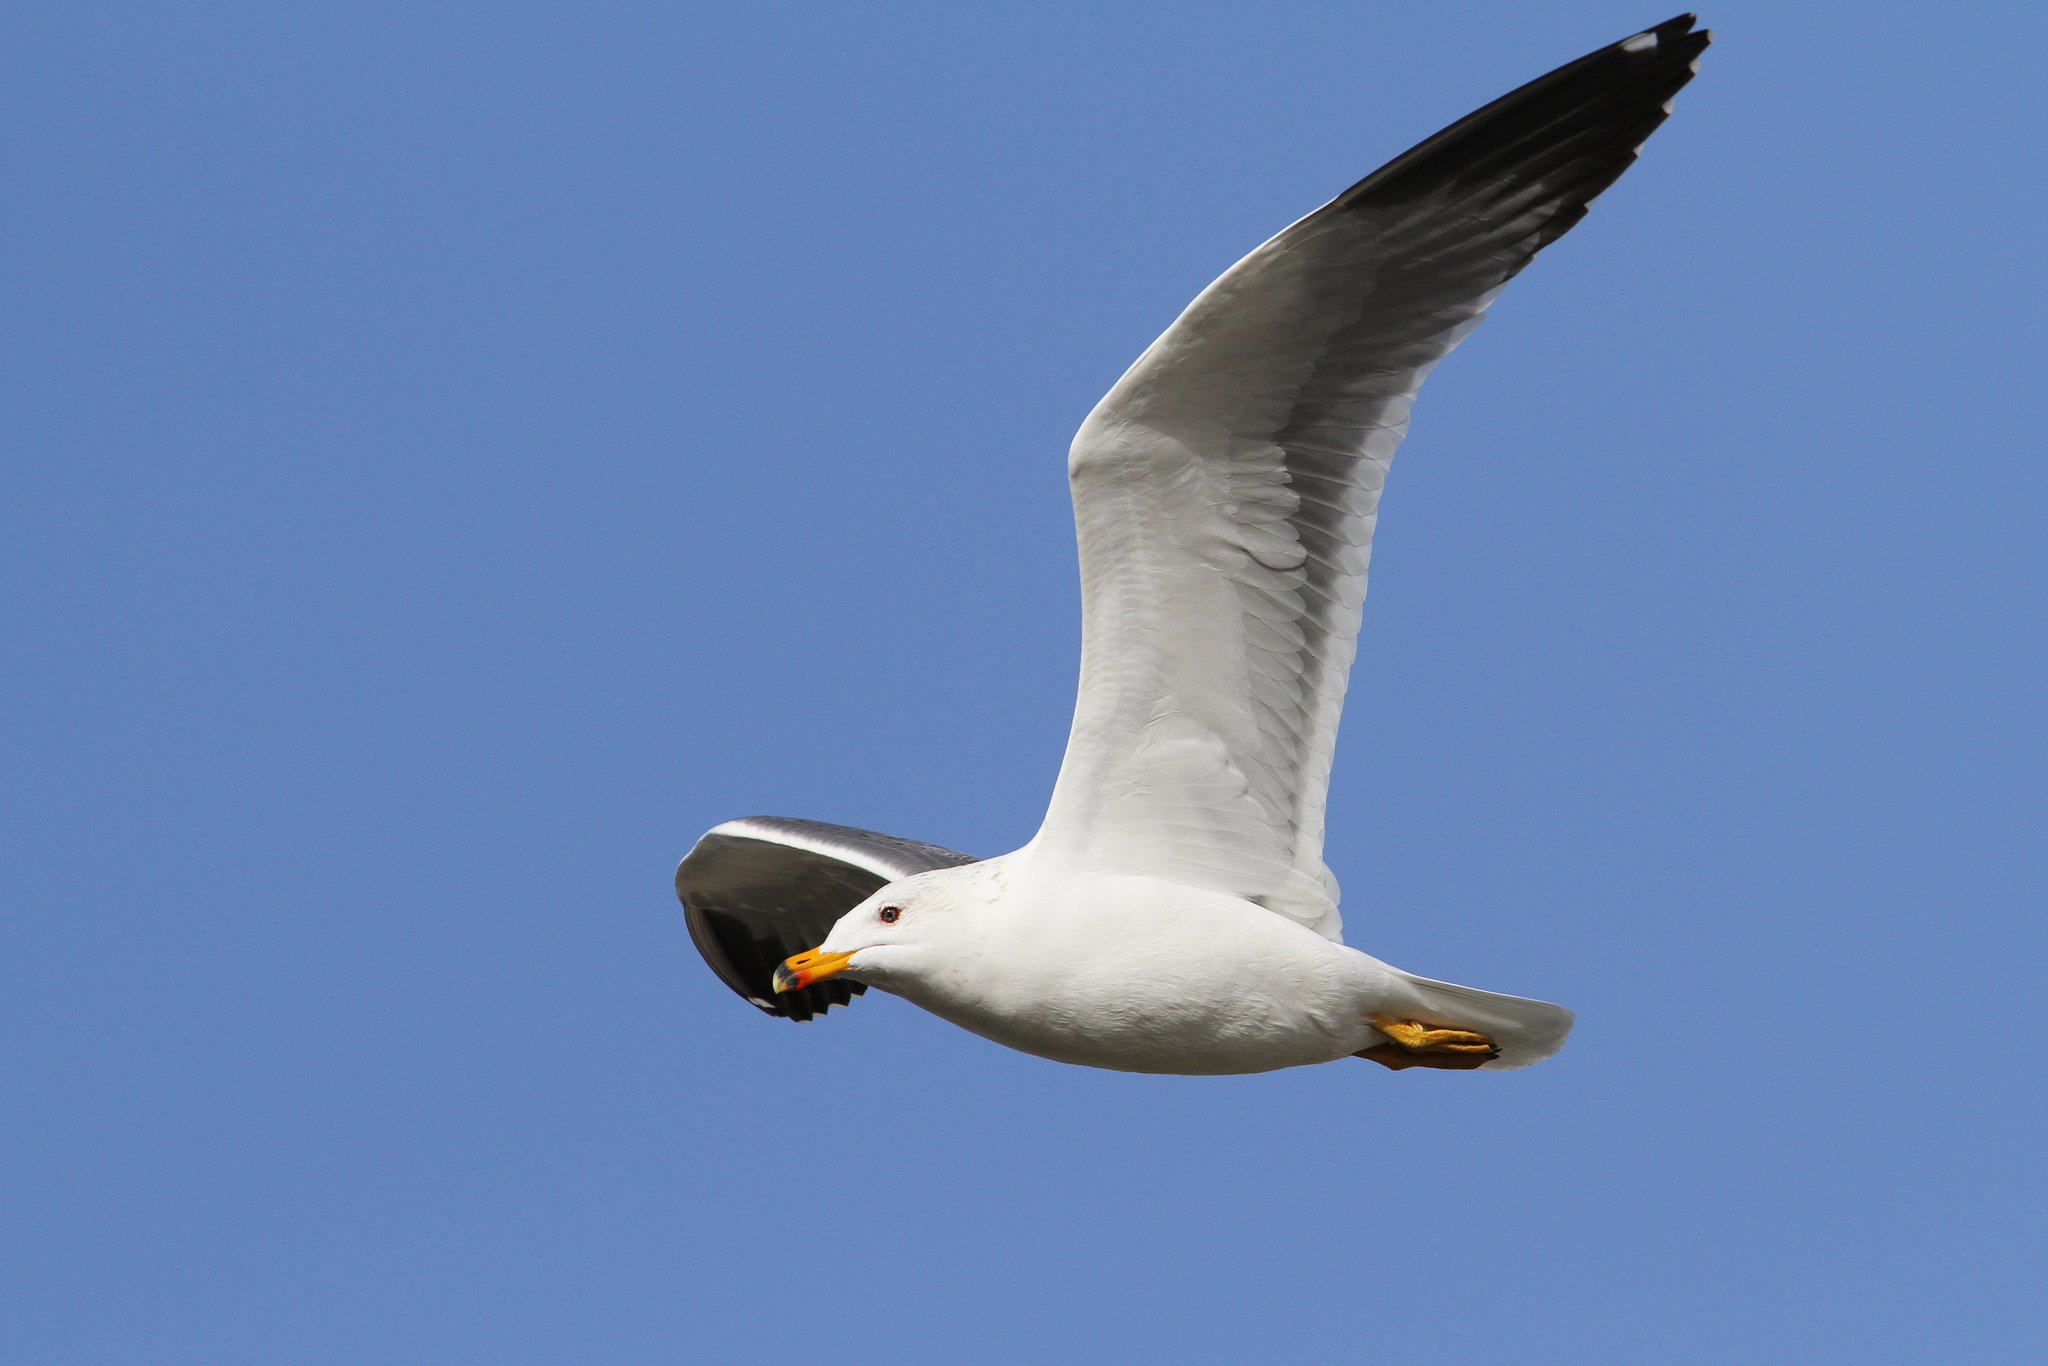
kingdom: Animalia
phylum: Chordata
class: Aves
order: Charadriiformes
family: Laridae
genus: Larus
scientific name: Larus armenicus
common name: Armenian gull
